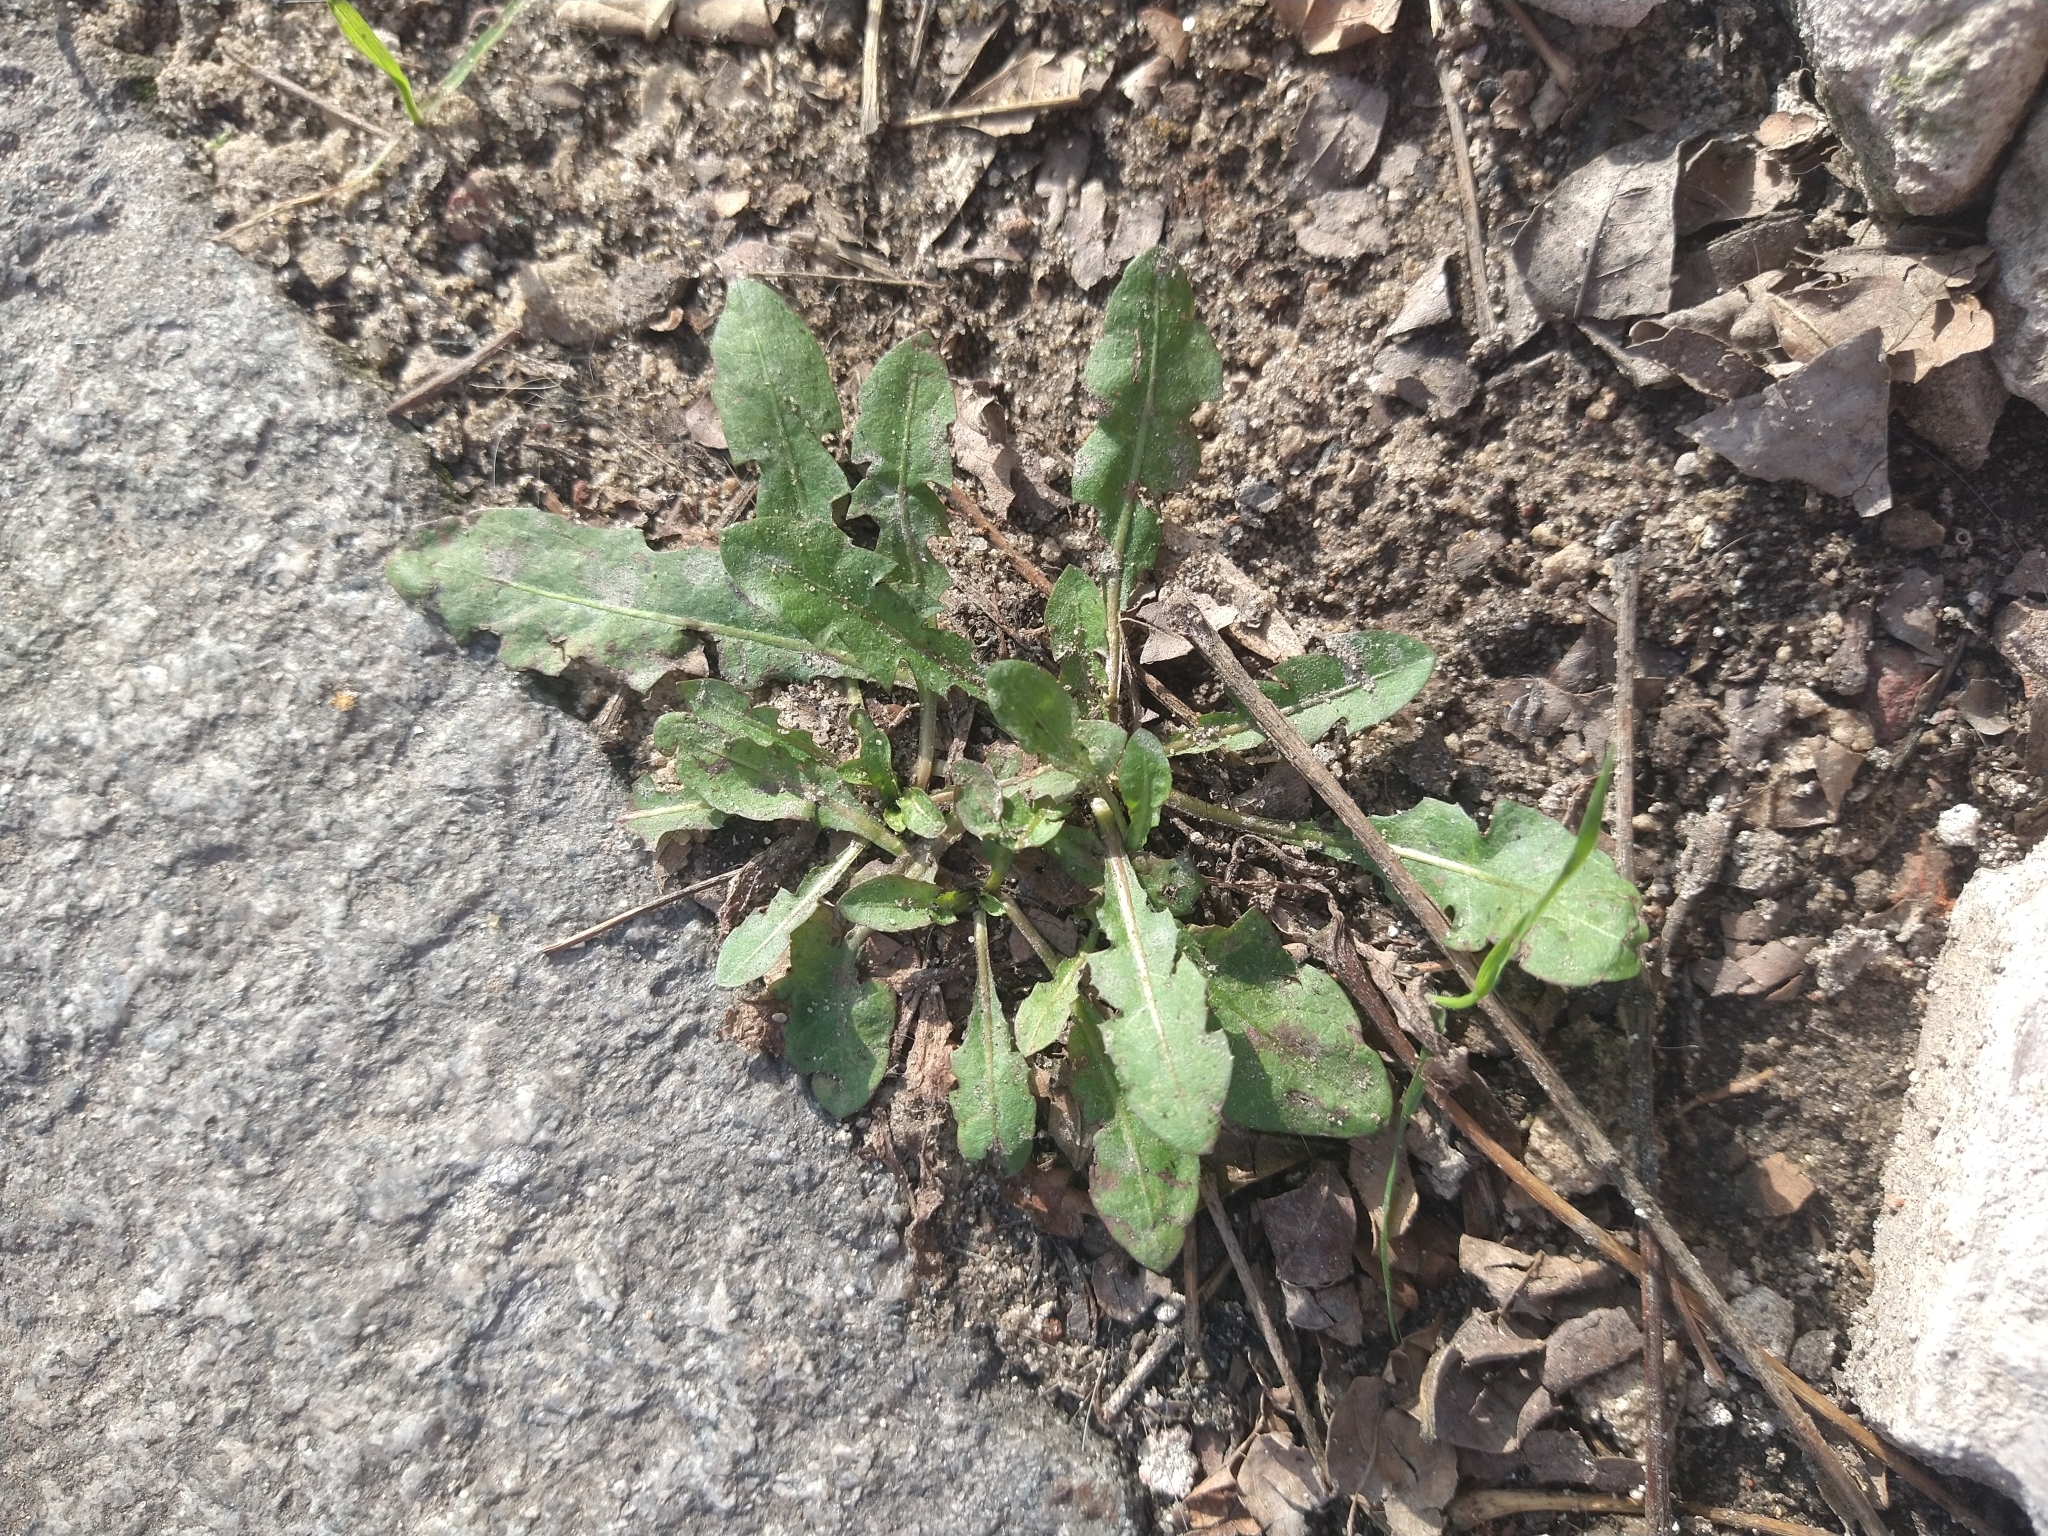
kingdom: Plantae
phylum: Tracheophyta
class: Magnoliopsida
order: Asterales
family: Asteraceae
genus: Taraxacum
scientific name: Taraxacum officinale
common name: Common dandelion
